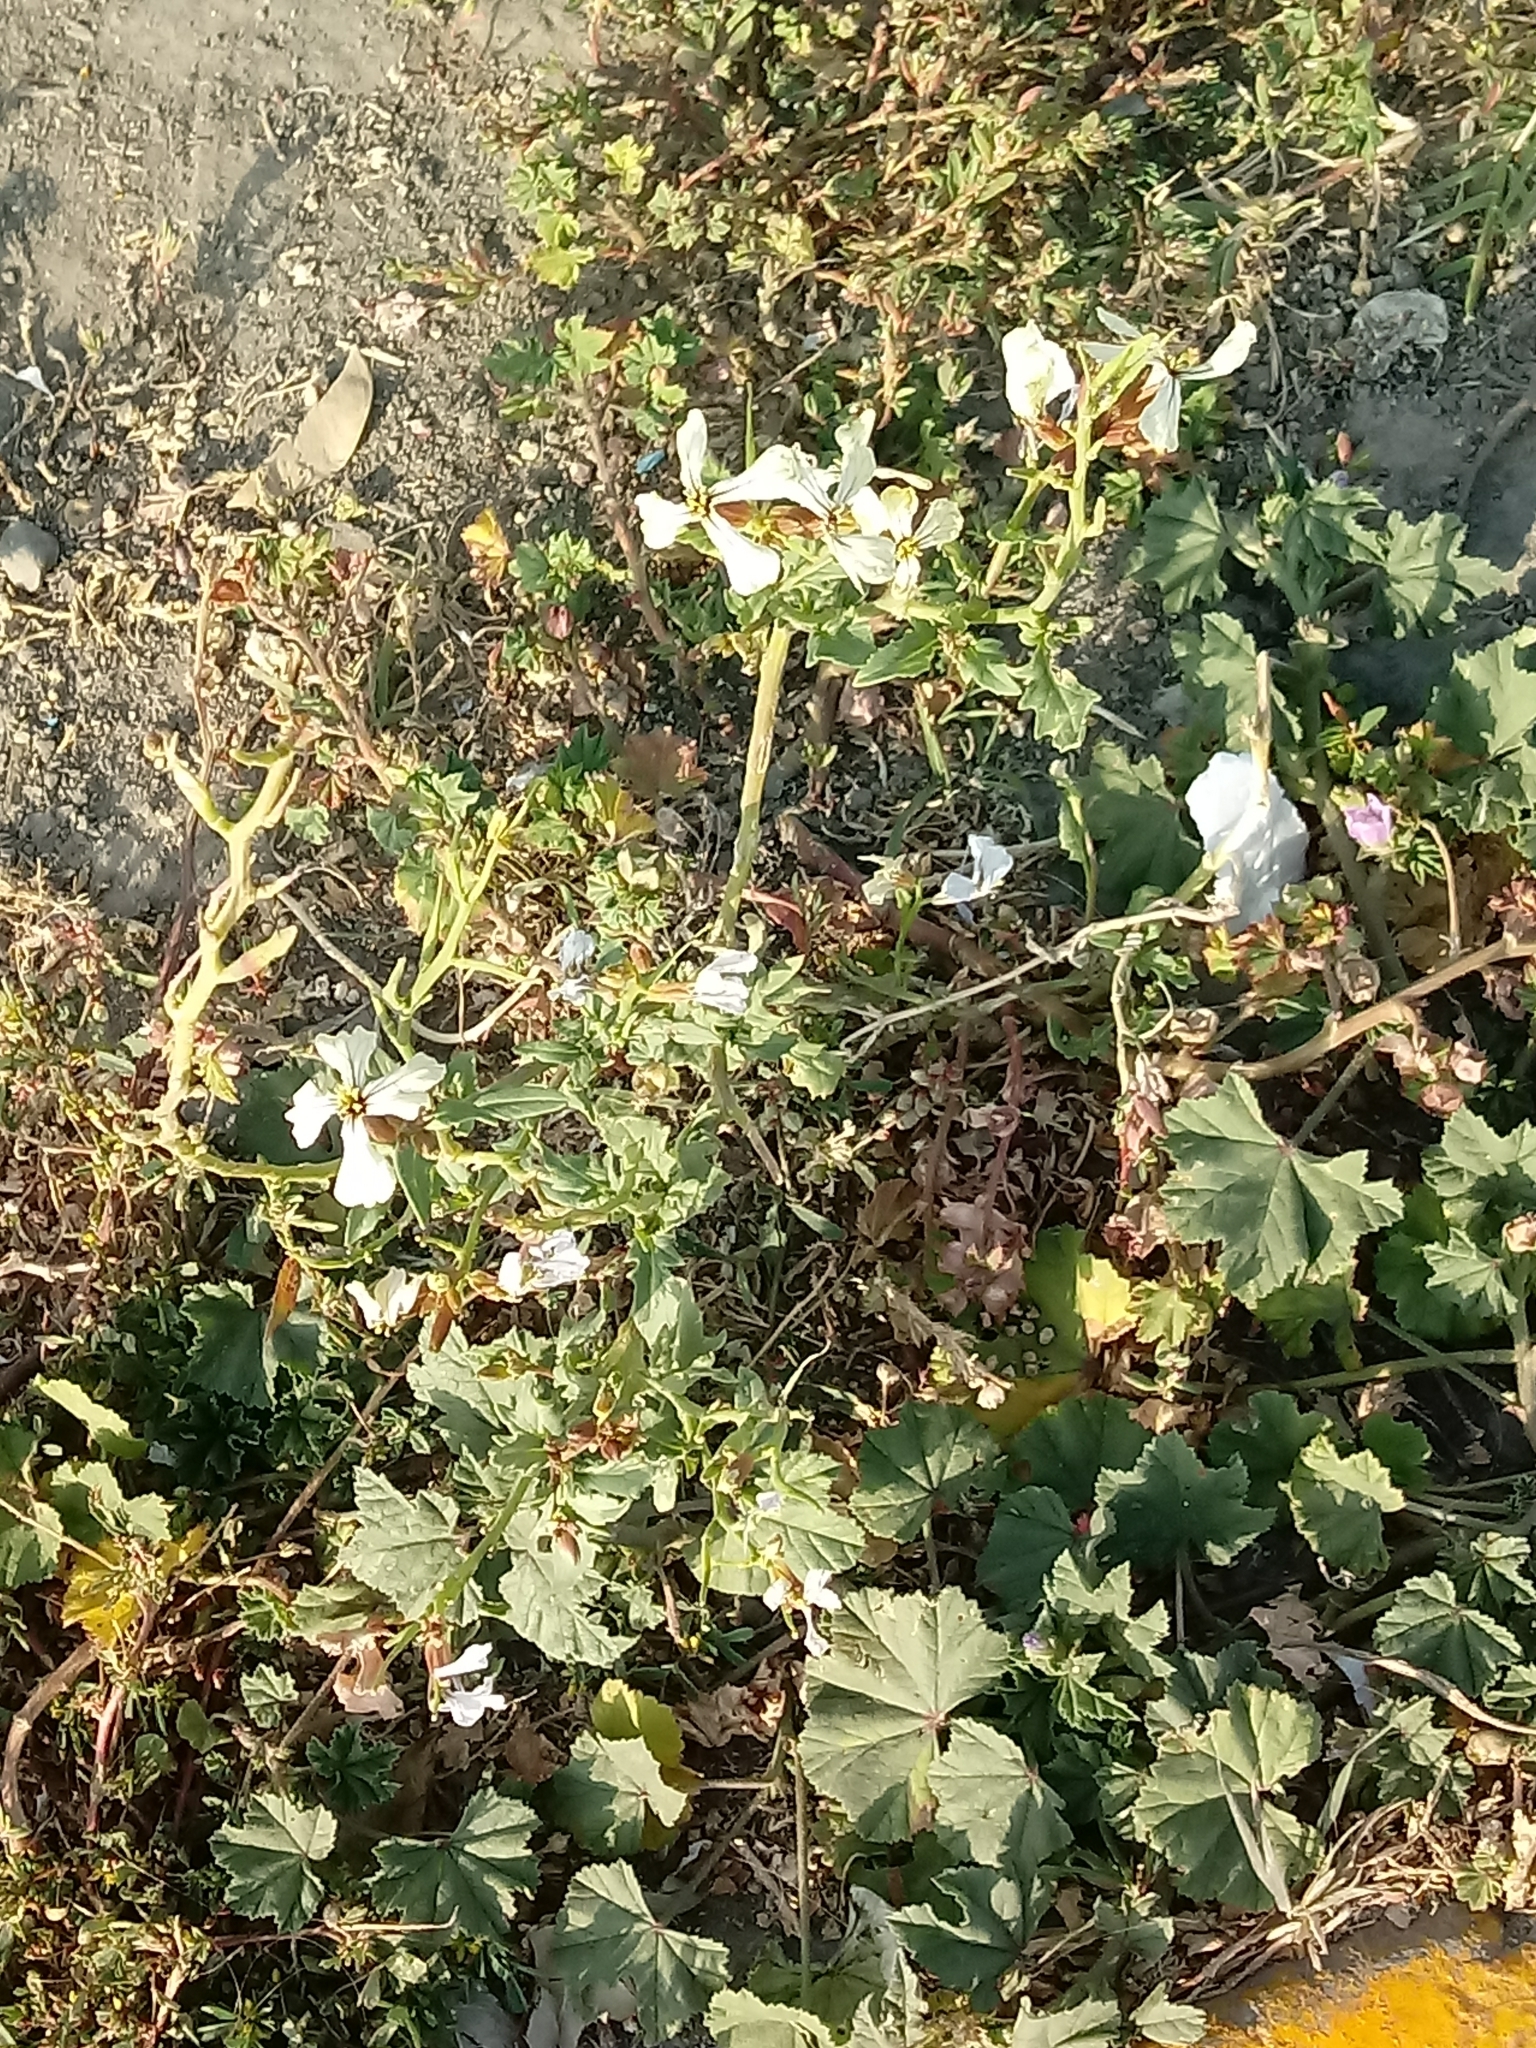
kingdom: Plantae
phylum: Tracheophyta
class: Magnoliopsida
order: Brassicales
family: Brassicaceae
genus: Eruca
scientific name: Eruca vesicaria
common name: Garden rocket
